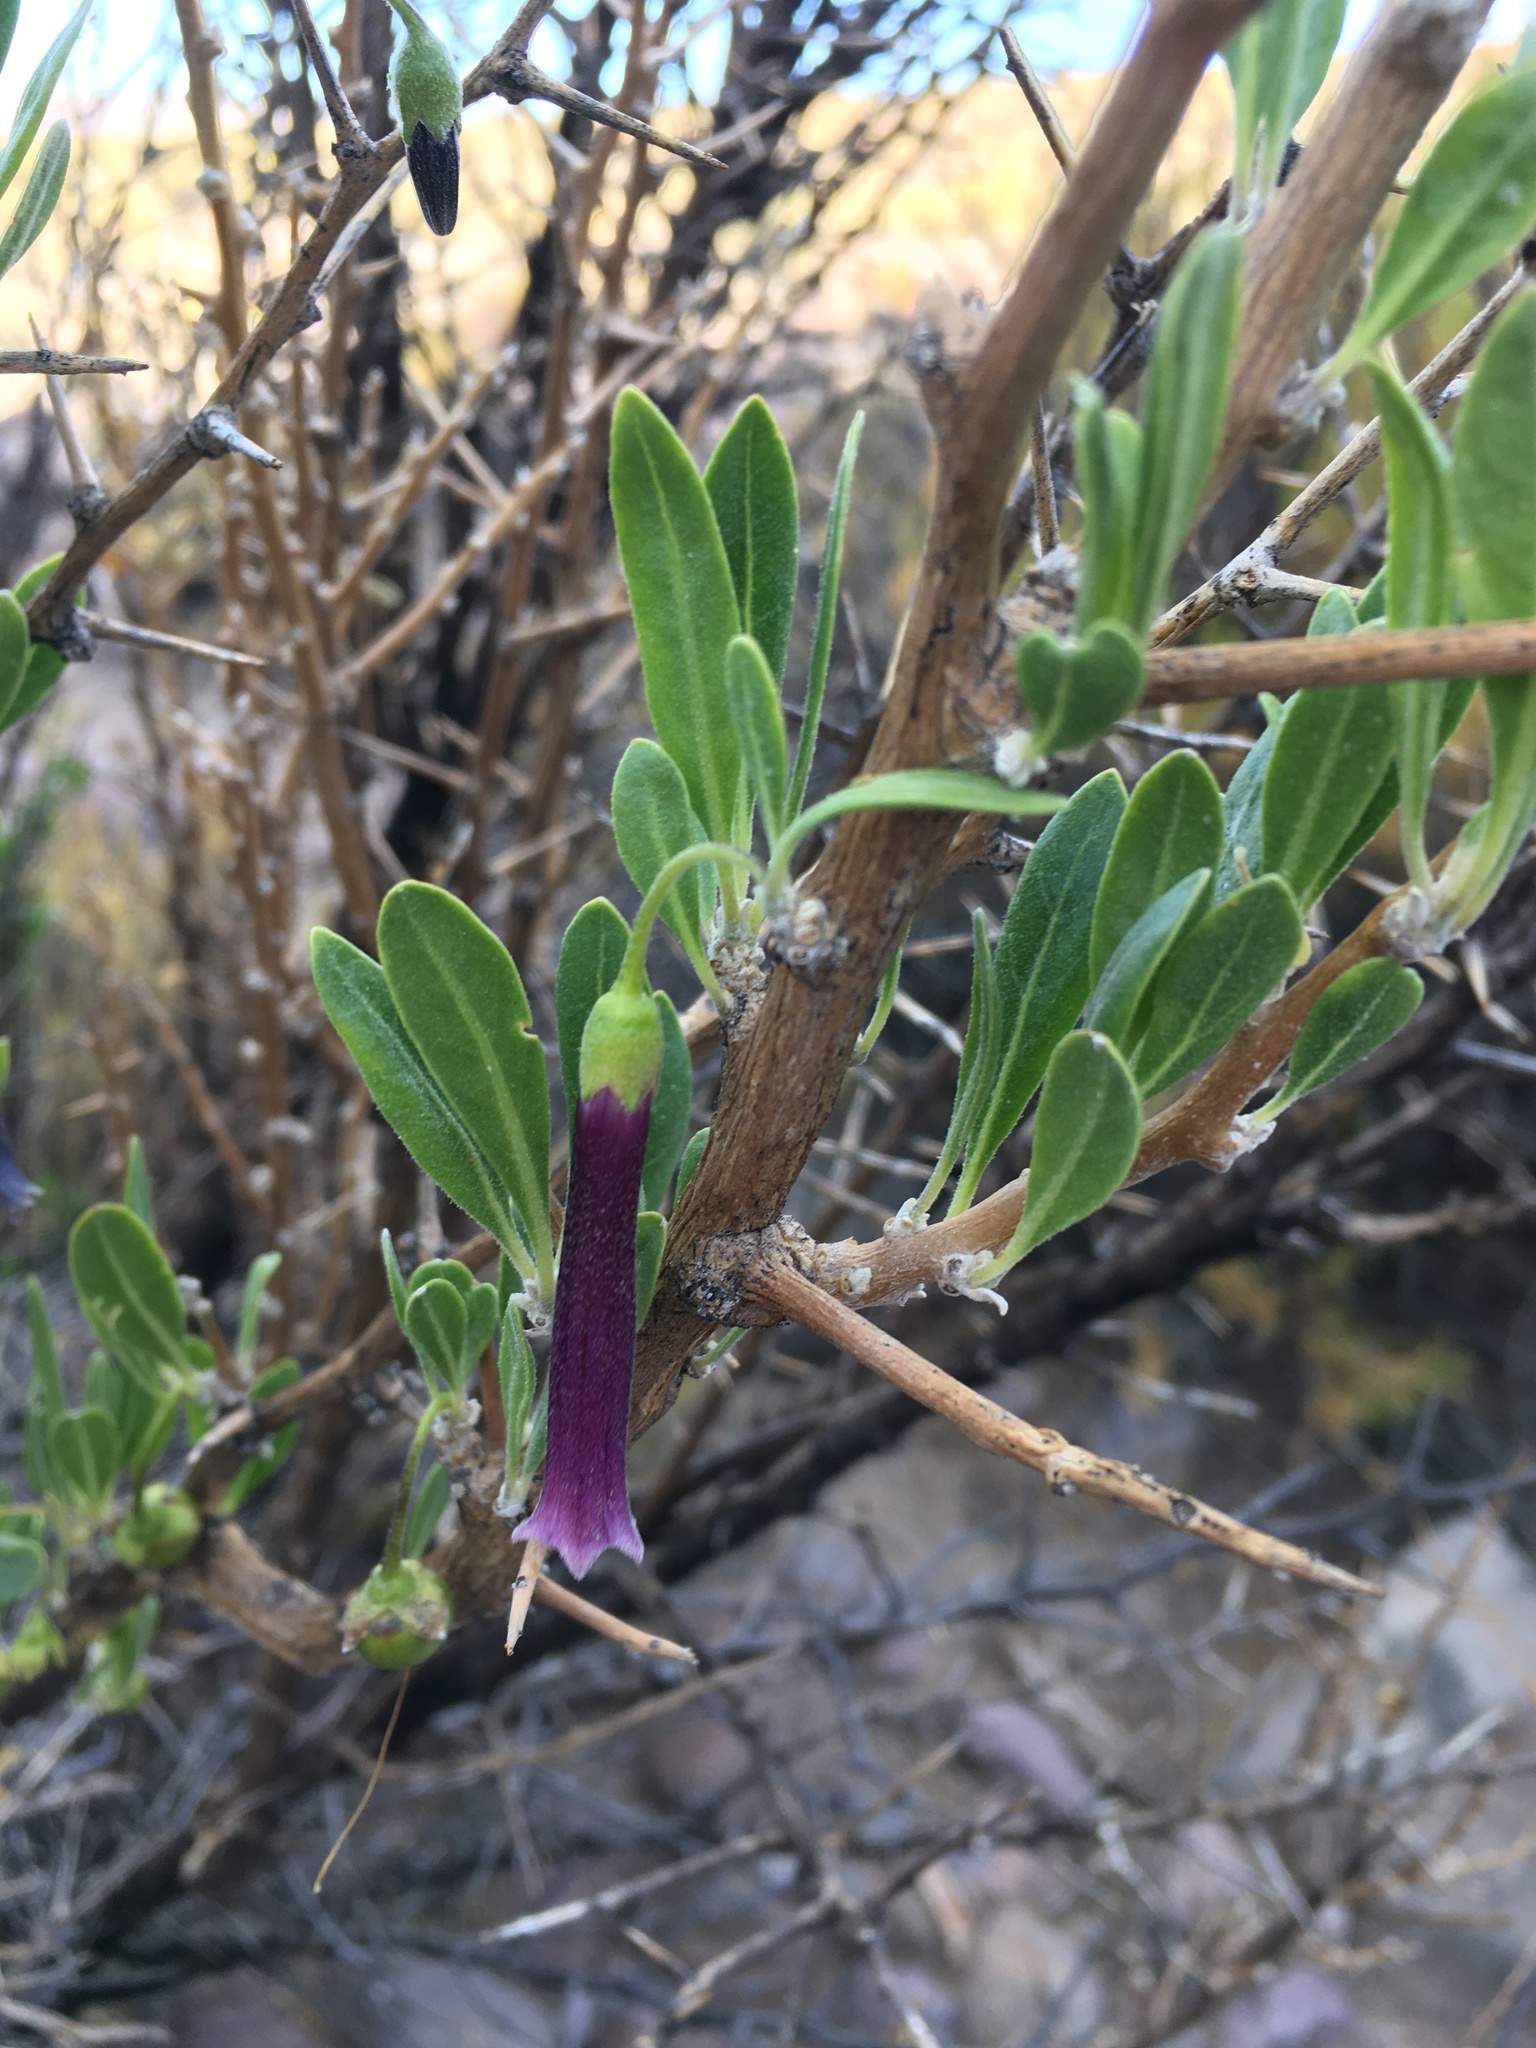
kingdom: Plantae
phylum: Tracheophyta
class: Magnoliopsida
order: Solanales
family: Solanaceae
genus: Dunalia
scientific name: Dunalia spinosa
